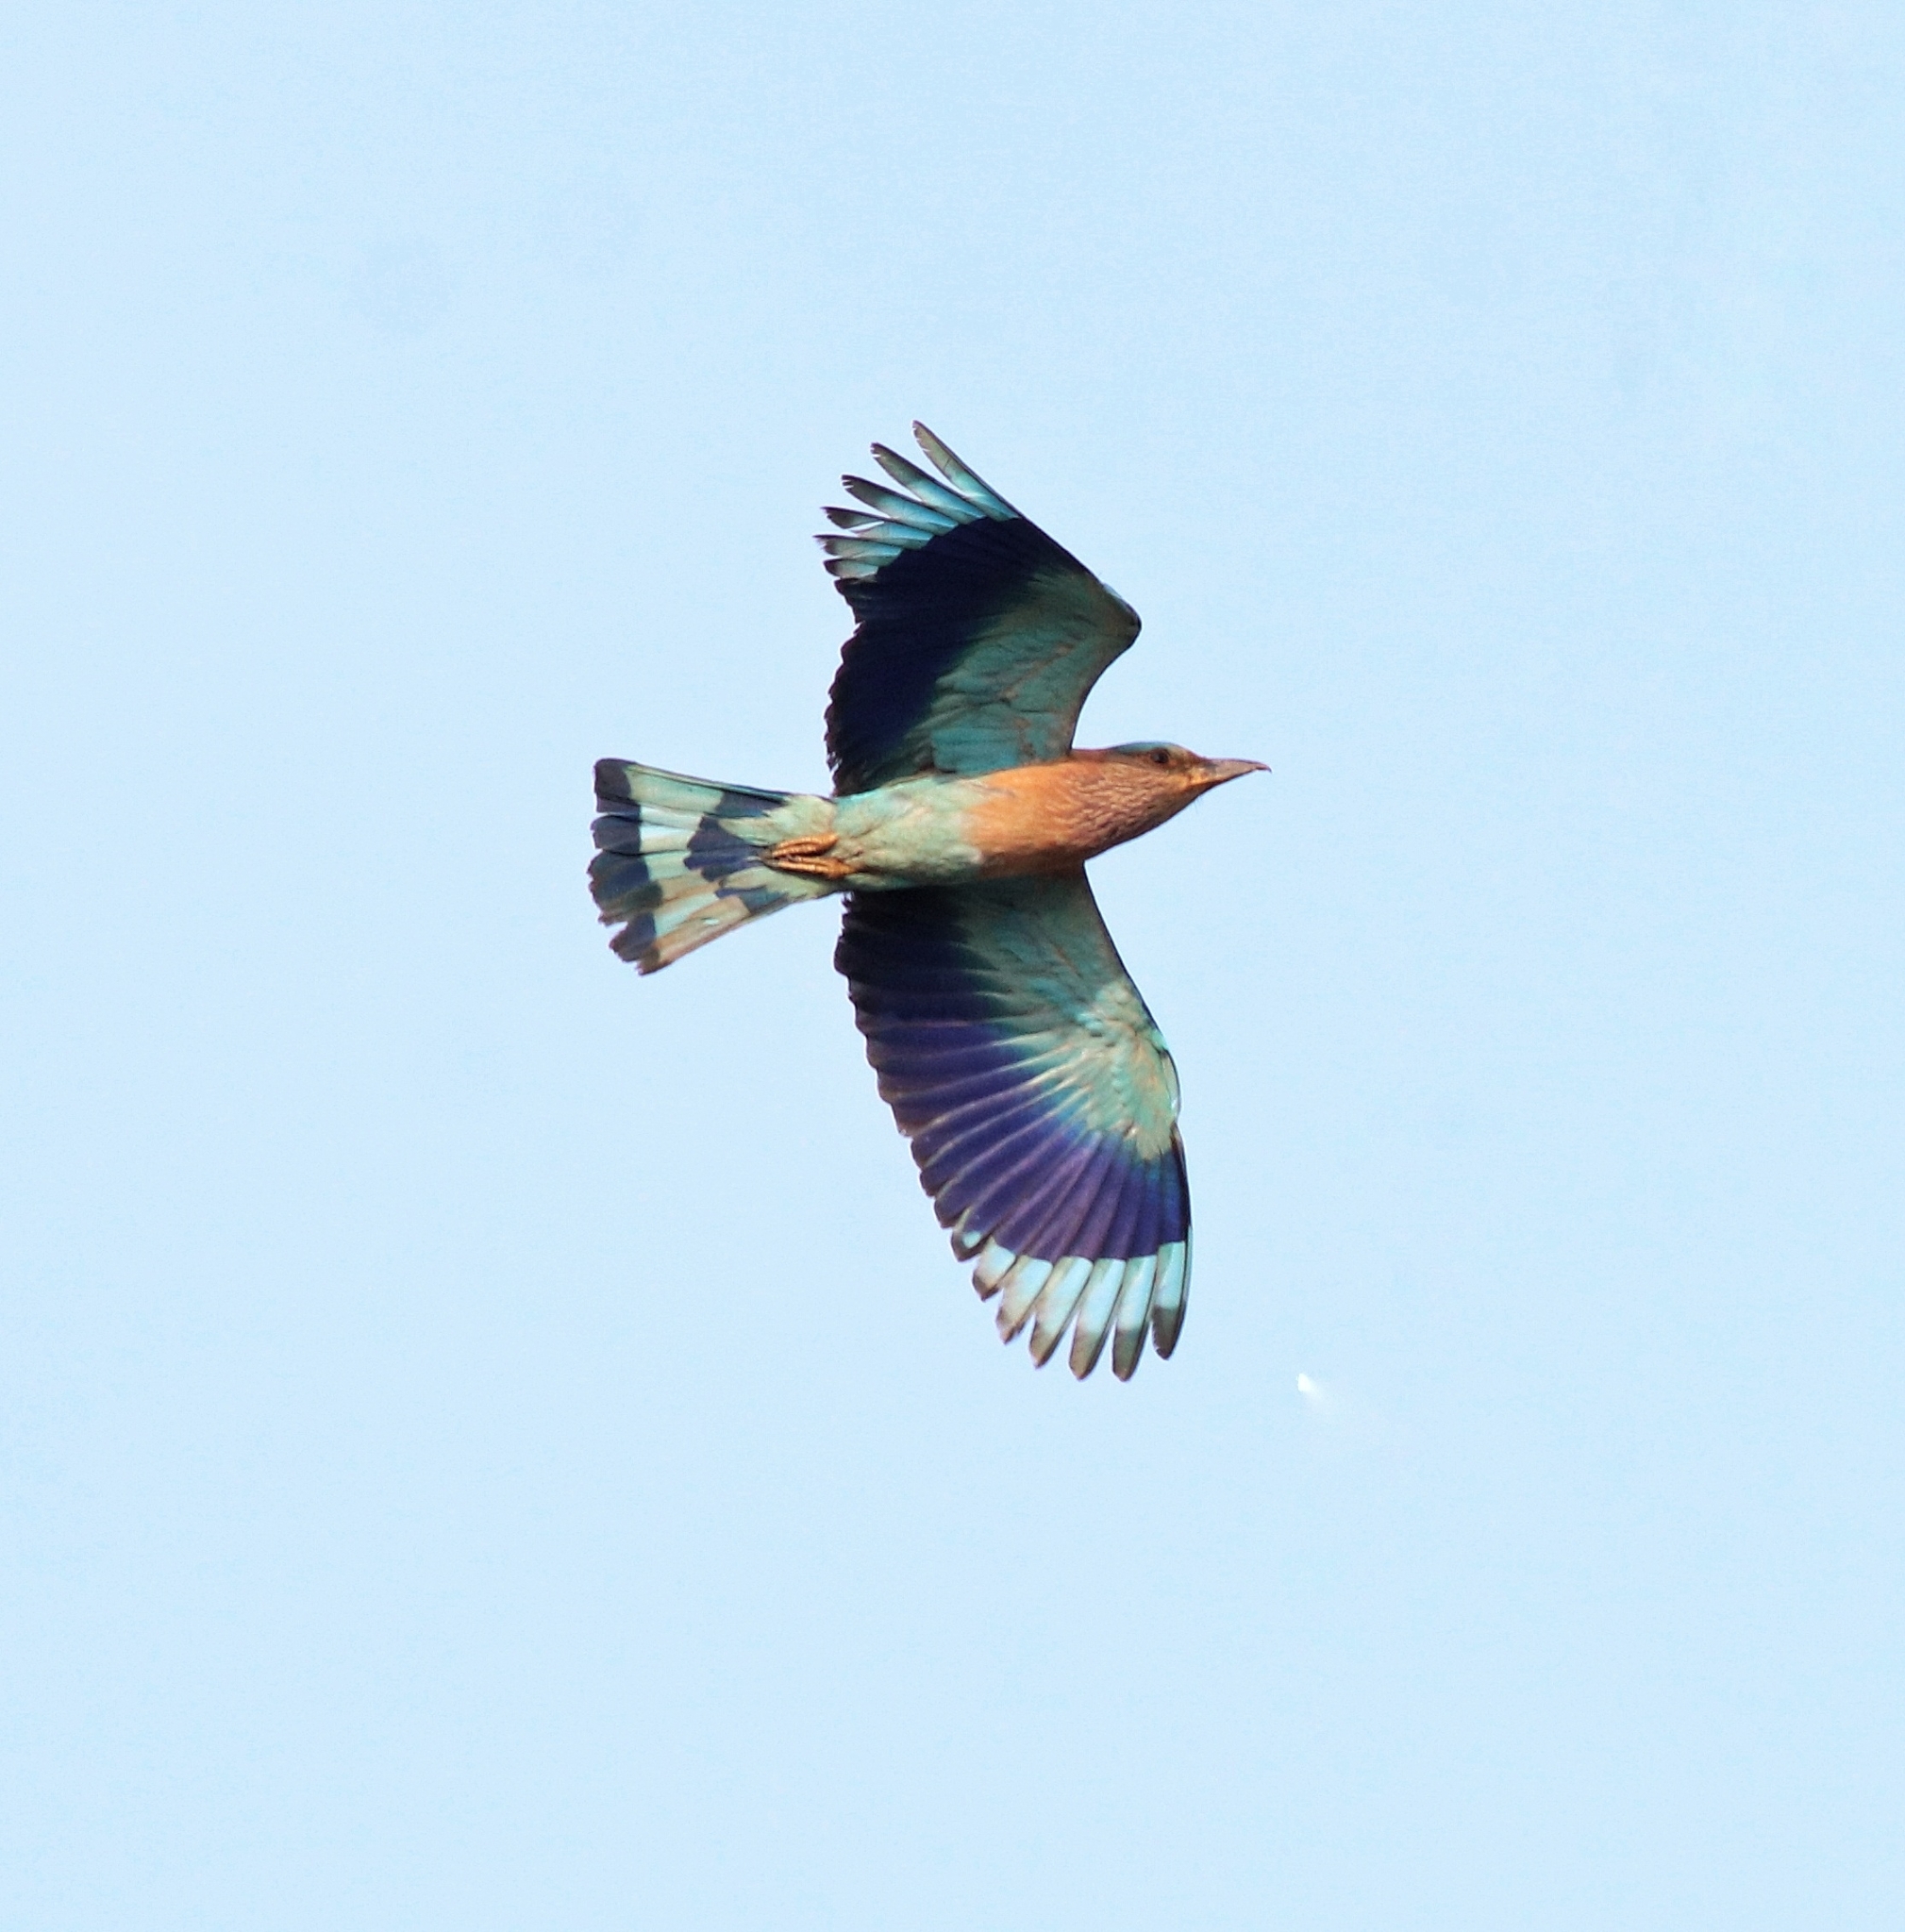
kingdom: Animalia
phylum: Chordata
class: Aves
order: Coraciiformes
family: Coraciidae
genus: Coracias
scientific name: Coracias benghalensis
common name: Indian roller
